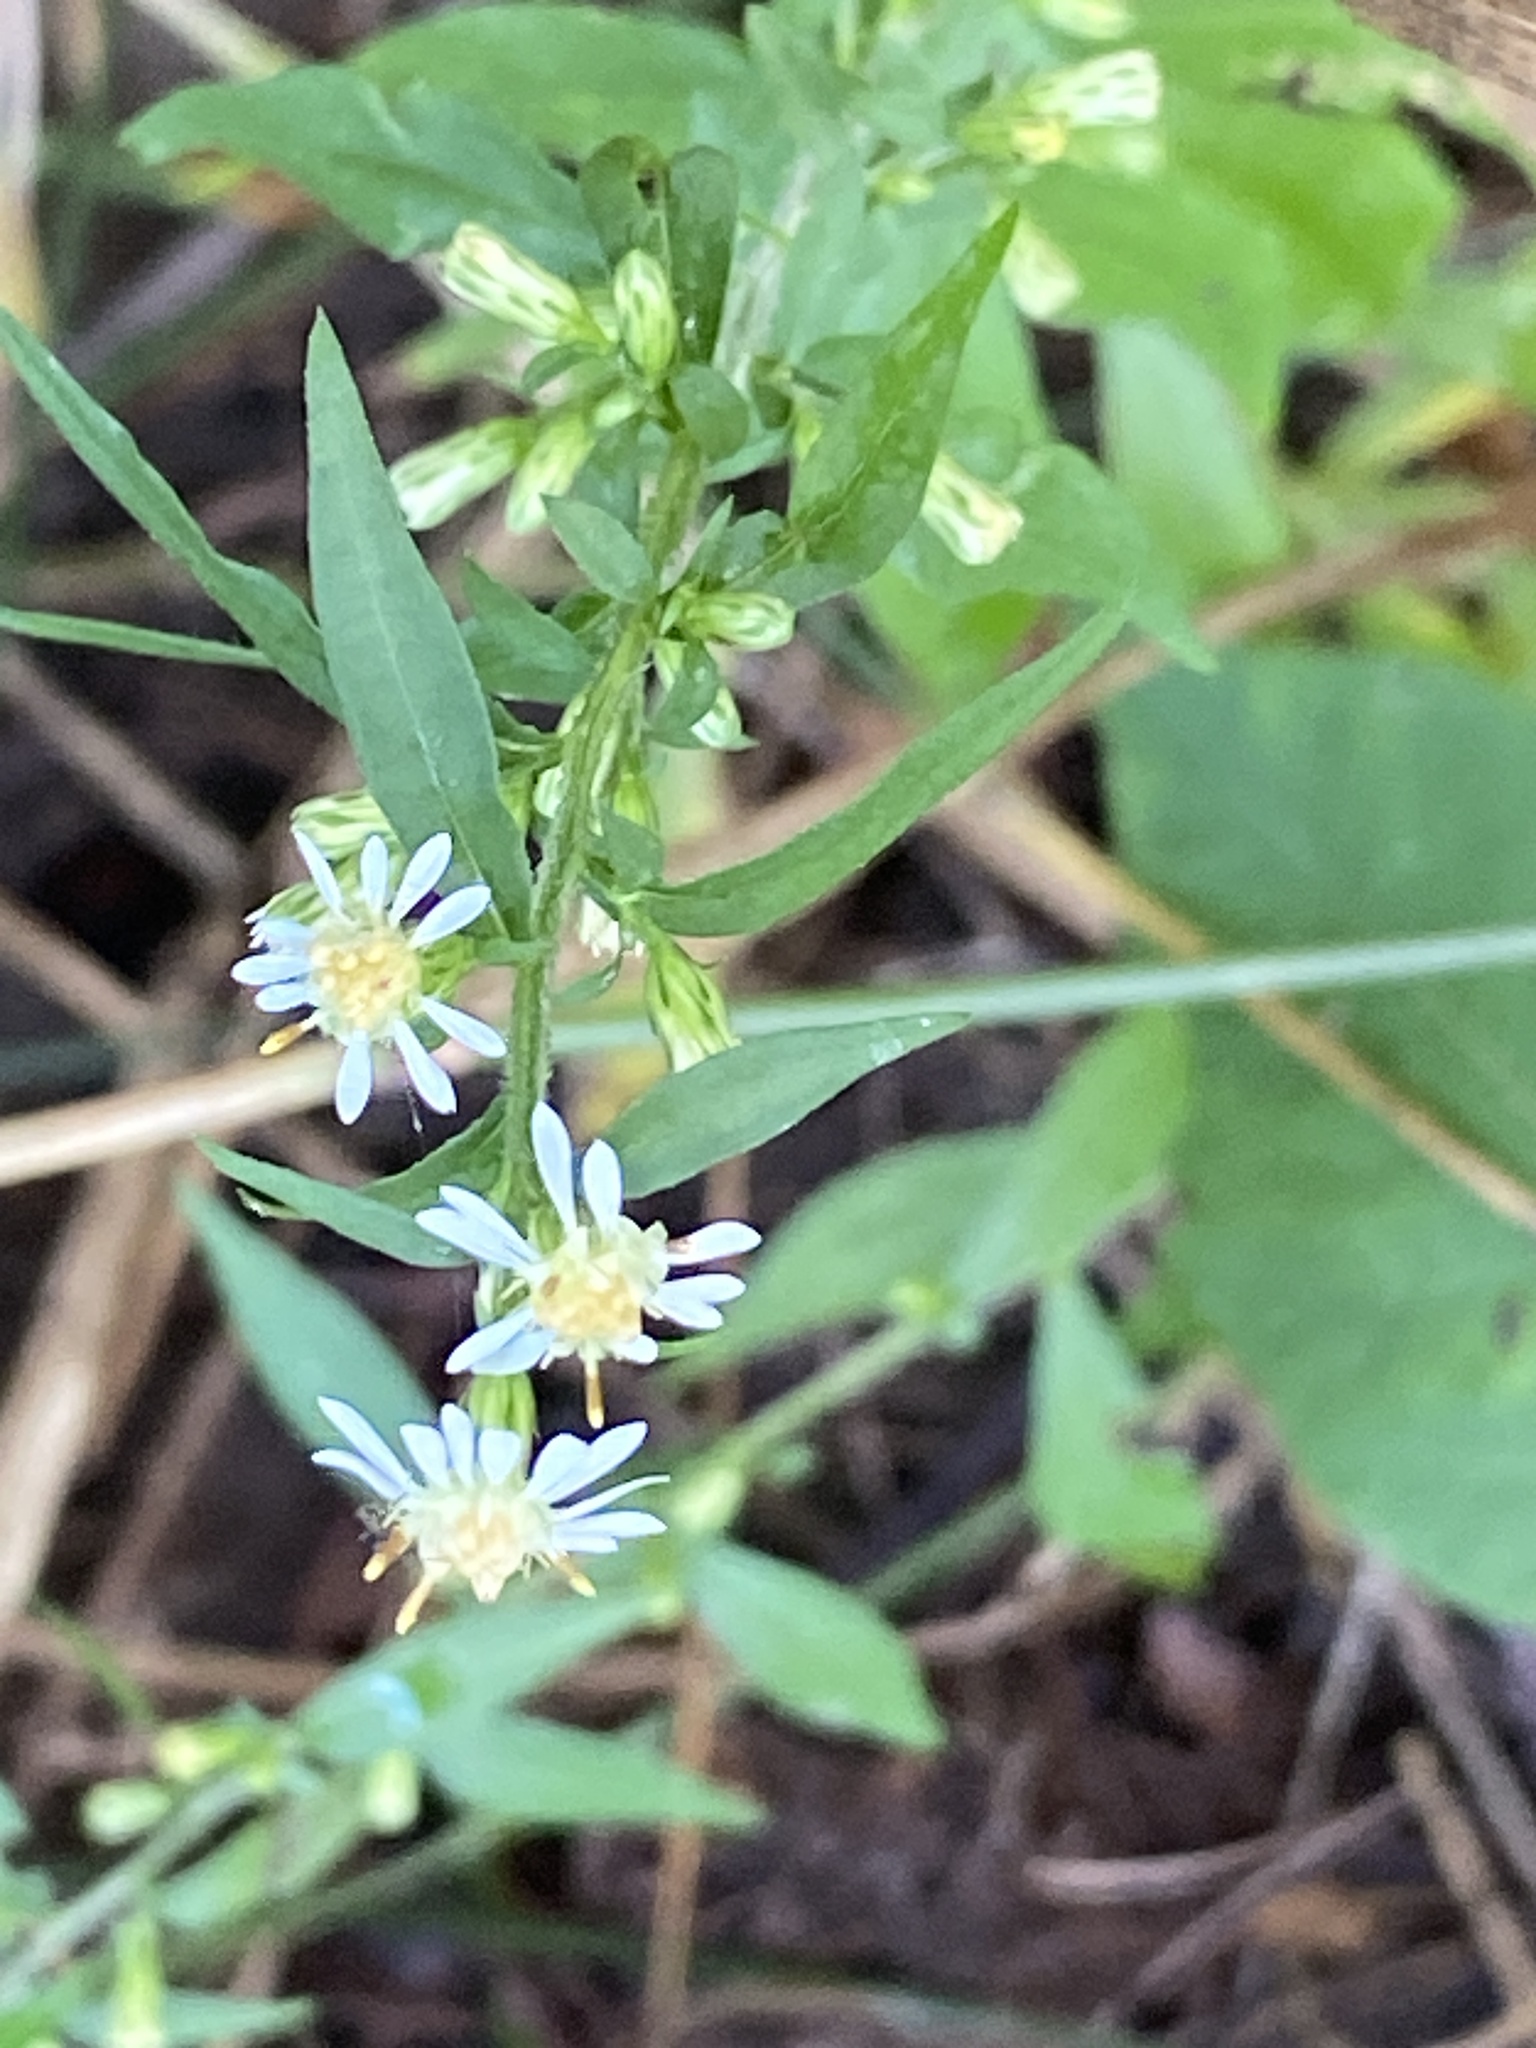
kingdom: Plantae
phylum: Tracheophyta
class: Magnoliopsida
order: Asterales
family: Asteraceae
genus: Symphyotrichum
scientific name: Symphyotrichum lateriflorum
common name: Calico aster
